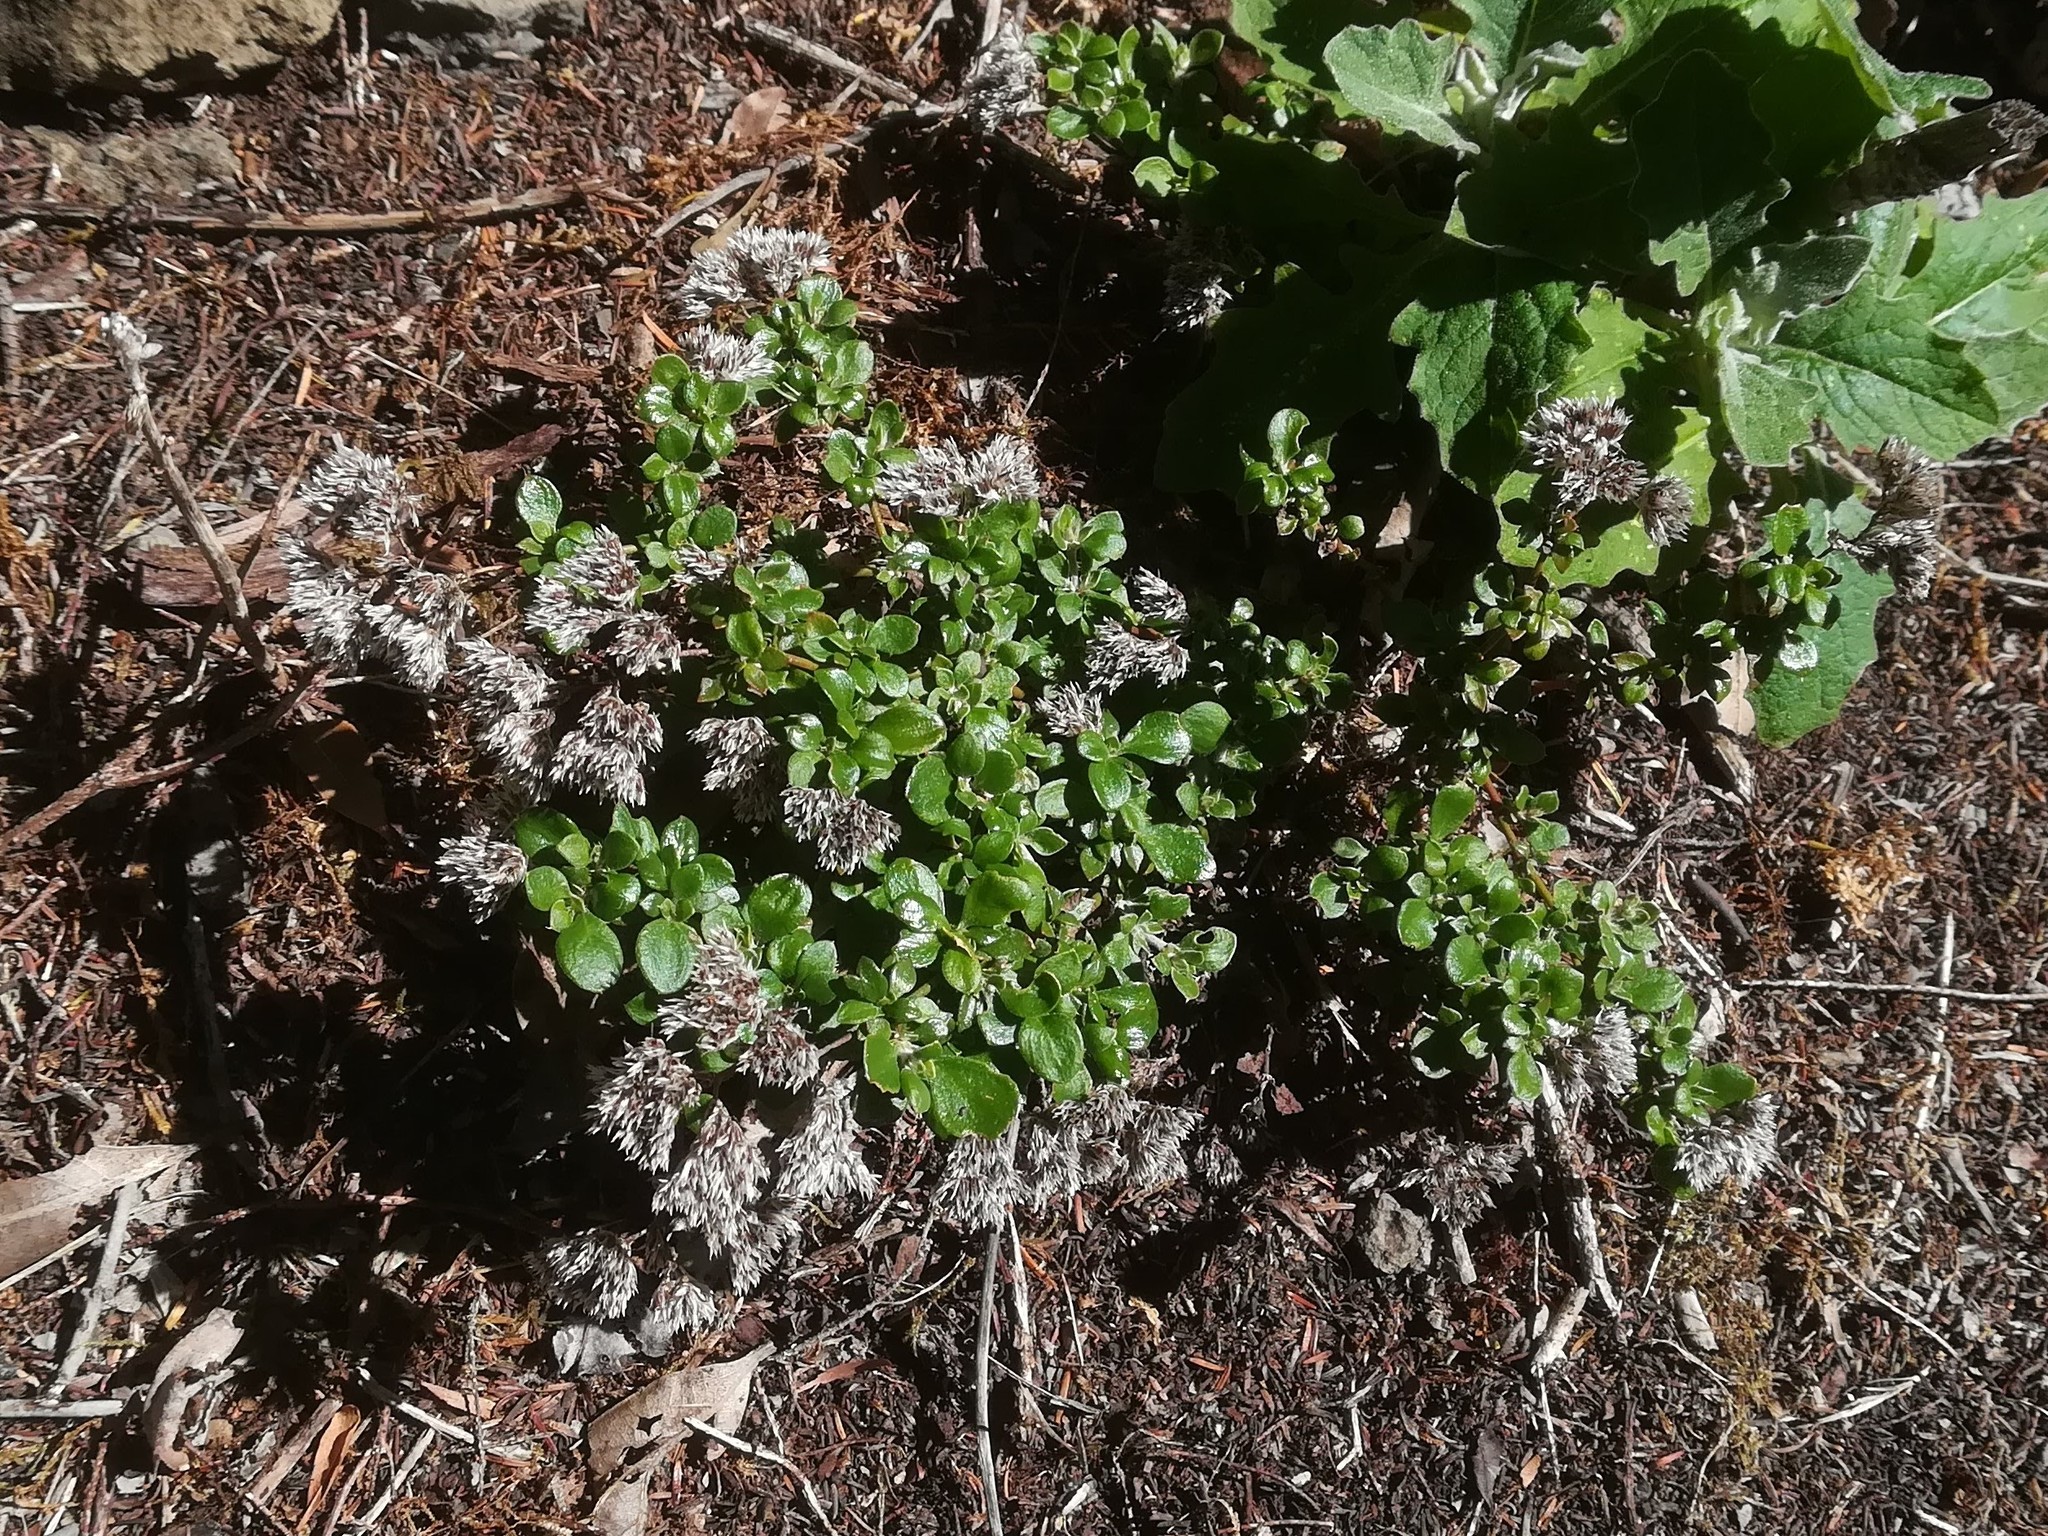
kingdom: Plantae
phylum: Tracheophyta
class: Magnoliopsida
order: Caryophyllales
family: Caryophyllaceae
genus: Polycarpaea
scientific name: Polycarpaea divaricata
